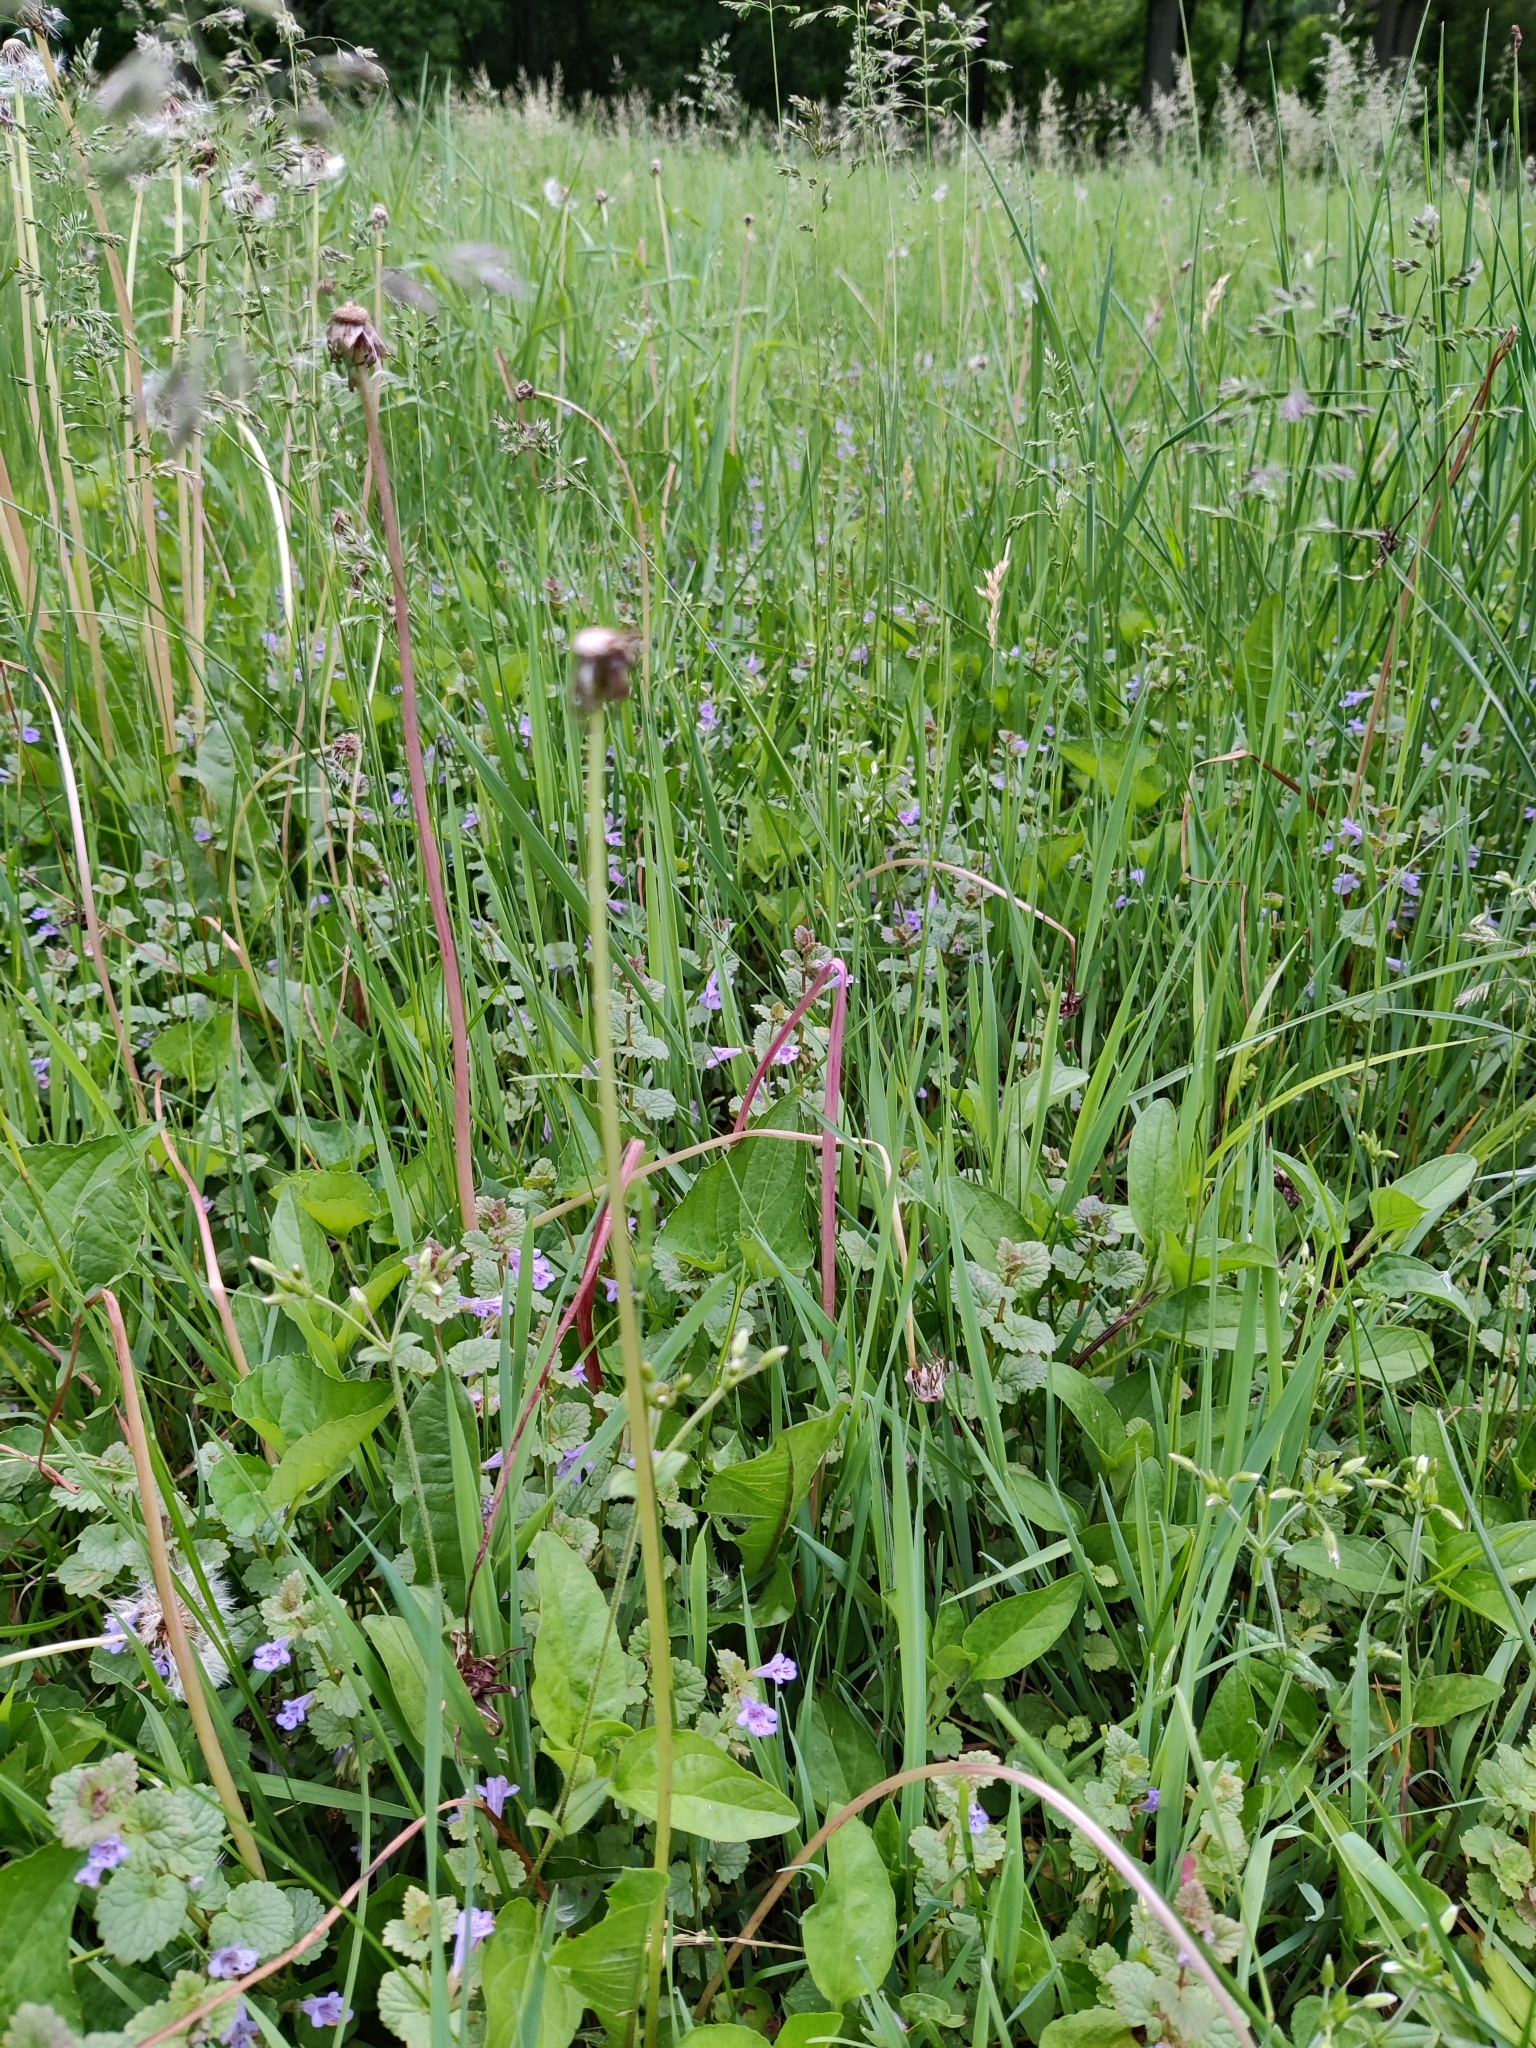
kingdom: Plantae
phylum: Tracheophyta
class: Magnoliopsida
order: Lamiales
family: Lamiaceae
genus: Glechoma
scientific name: Glechoma hederacea
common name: Ground ivy
